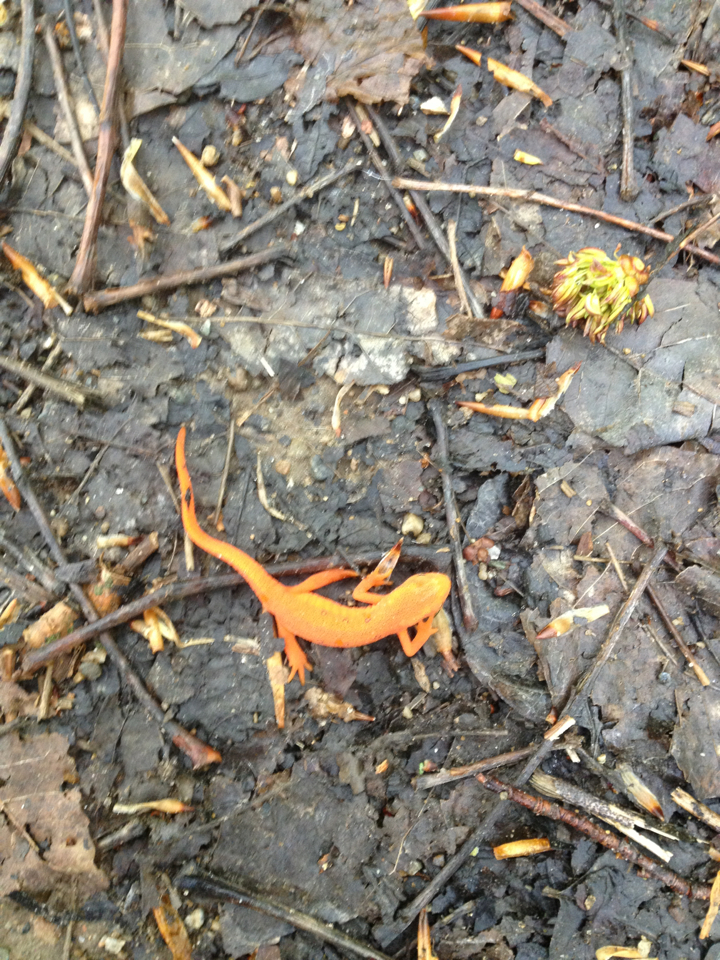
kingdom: Animalia
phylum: Chordata
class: Amphibia
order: Caudata
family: Salamandridae
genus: Notophthalmus
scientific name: Notophthalmus viridescens
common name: Eastern newt
